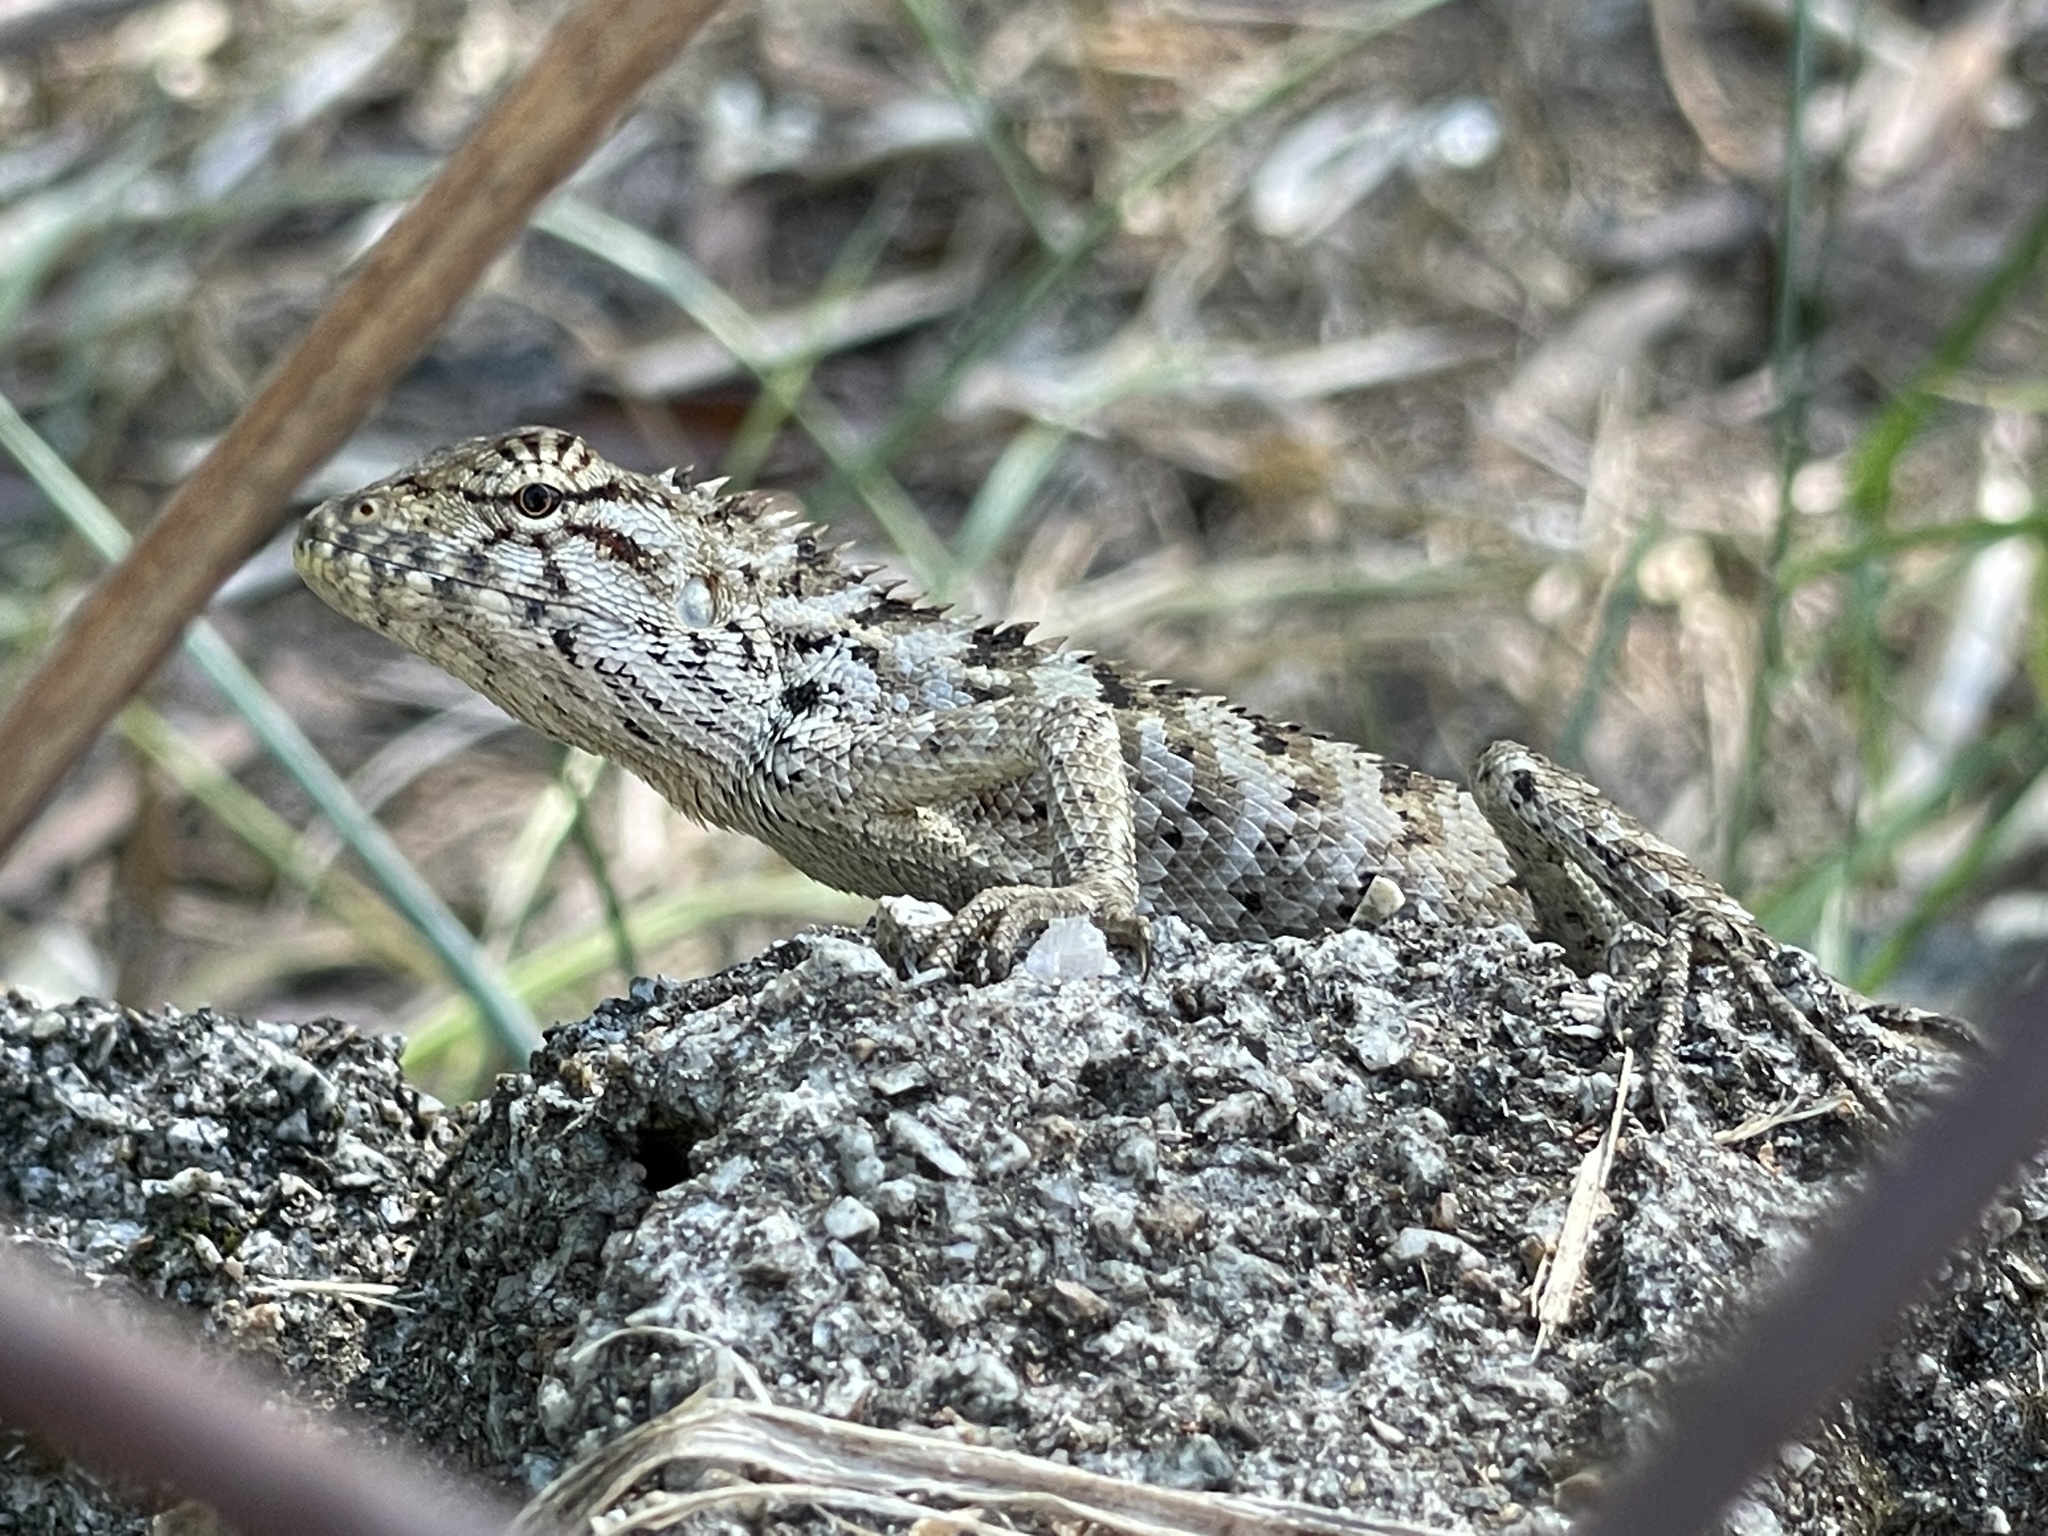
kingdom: Animalia
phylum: Chordata
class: Squamata
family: Agamidae
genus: Calotes
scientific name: Calotes versicolor
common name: Oriental garden lizard
